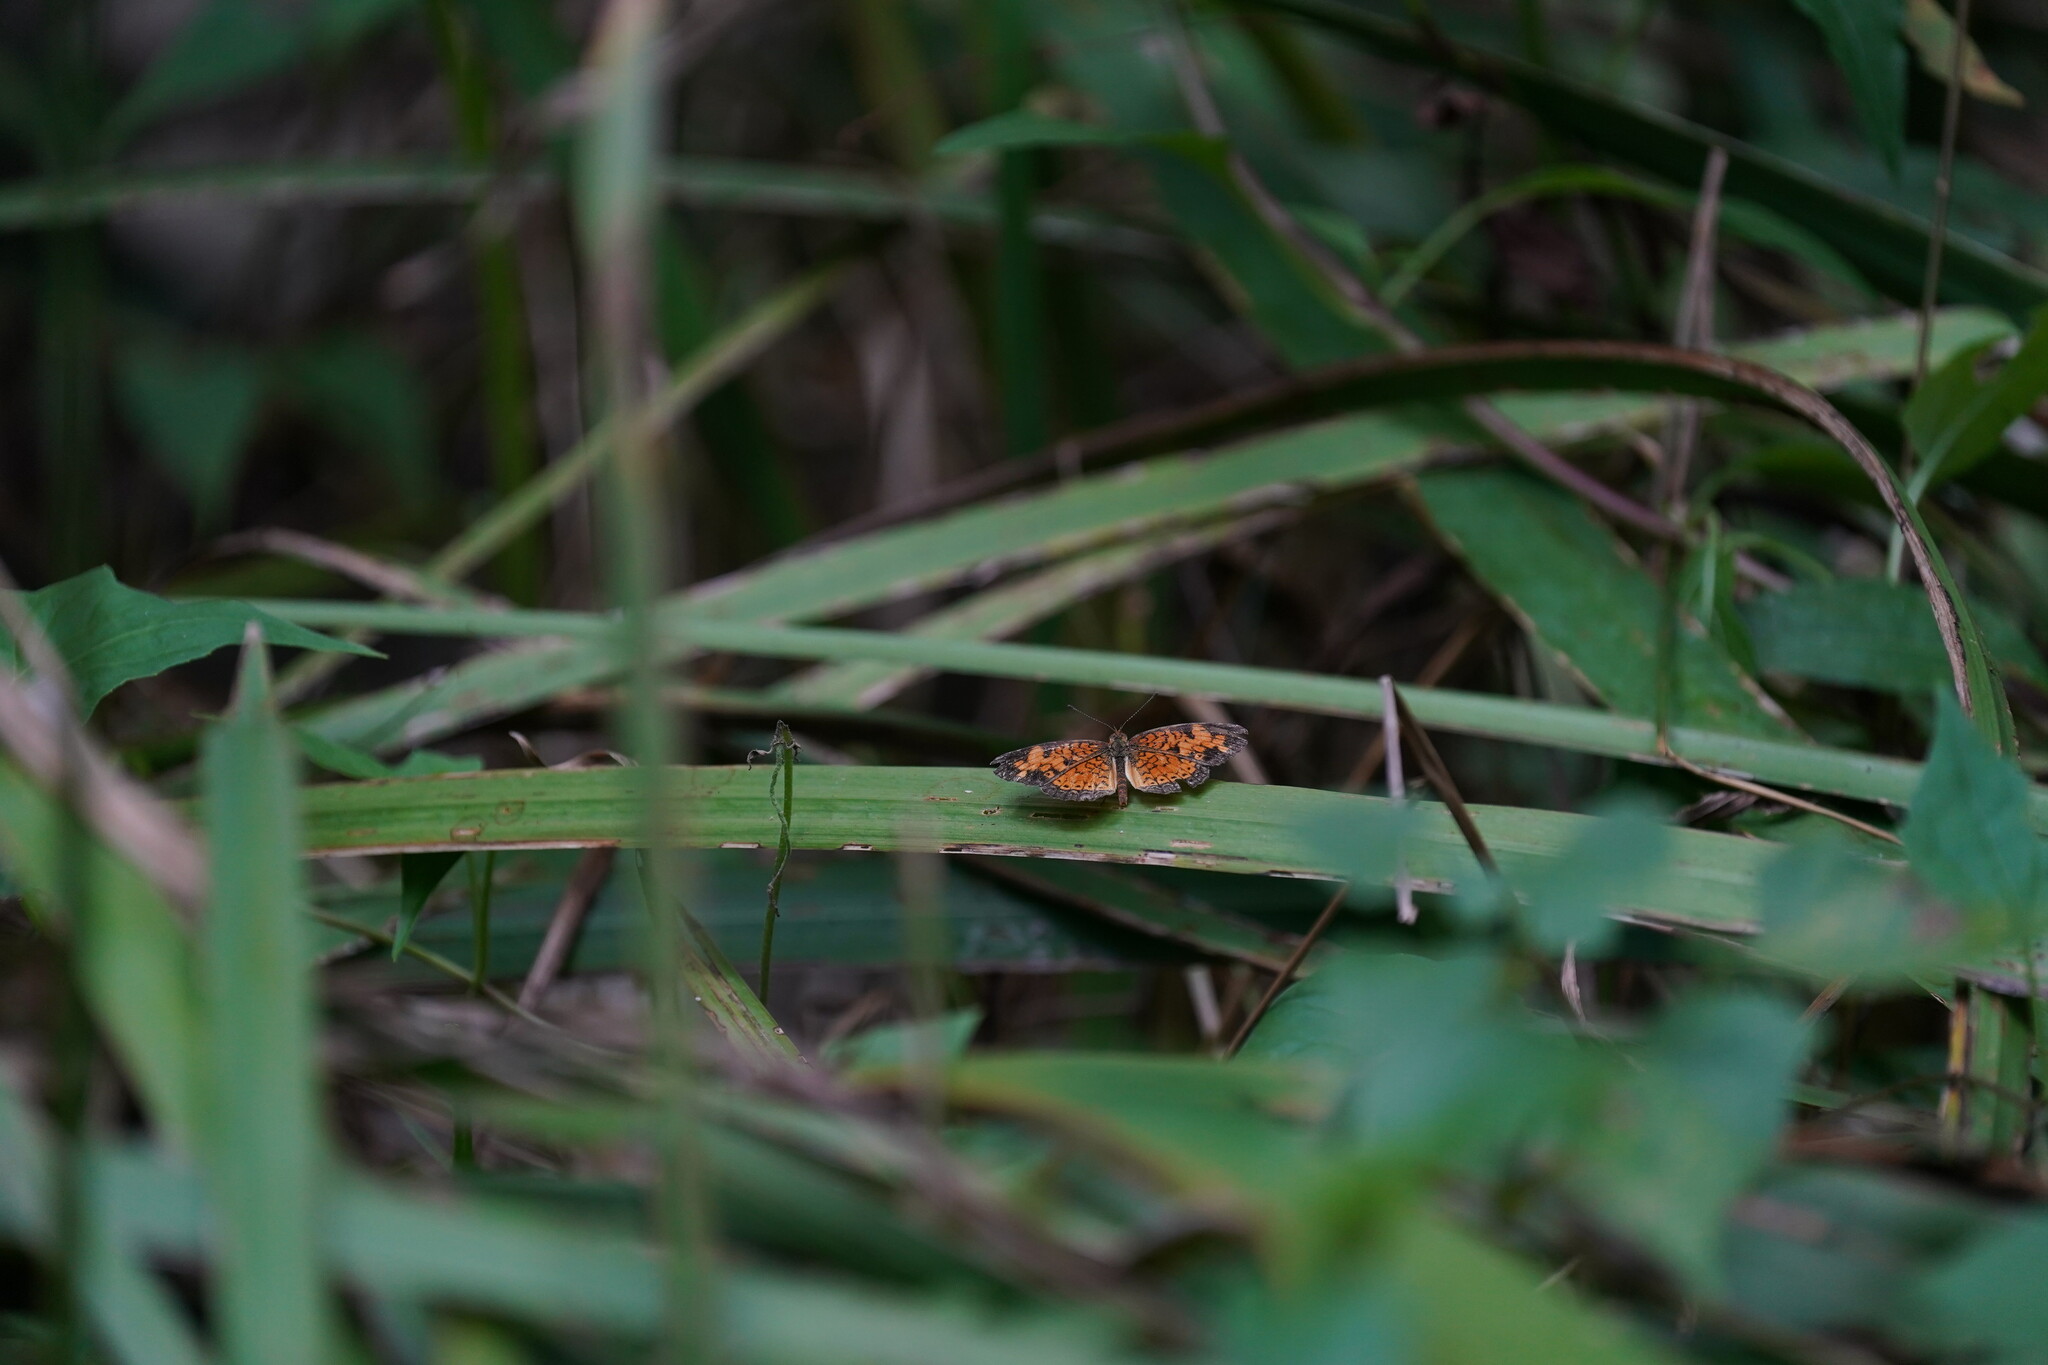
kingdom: Animalia
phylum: Arthropoda
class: Insecta
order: Lepidoptera
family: Nymphalidae
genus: Phyciodes
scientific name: Phyciodes tharos
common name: Pearl crescent
